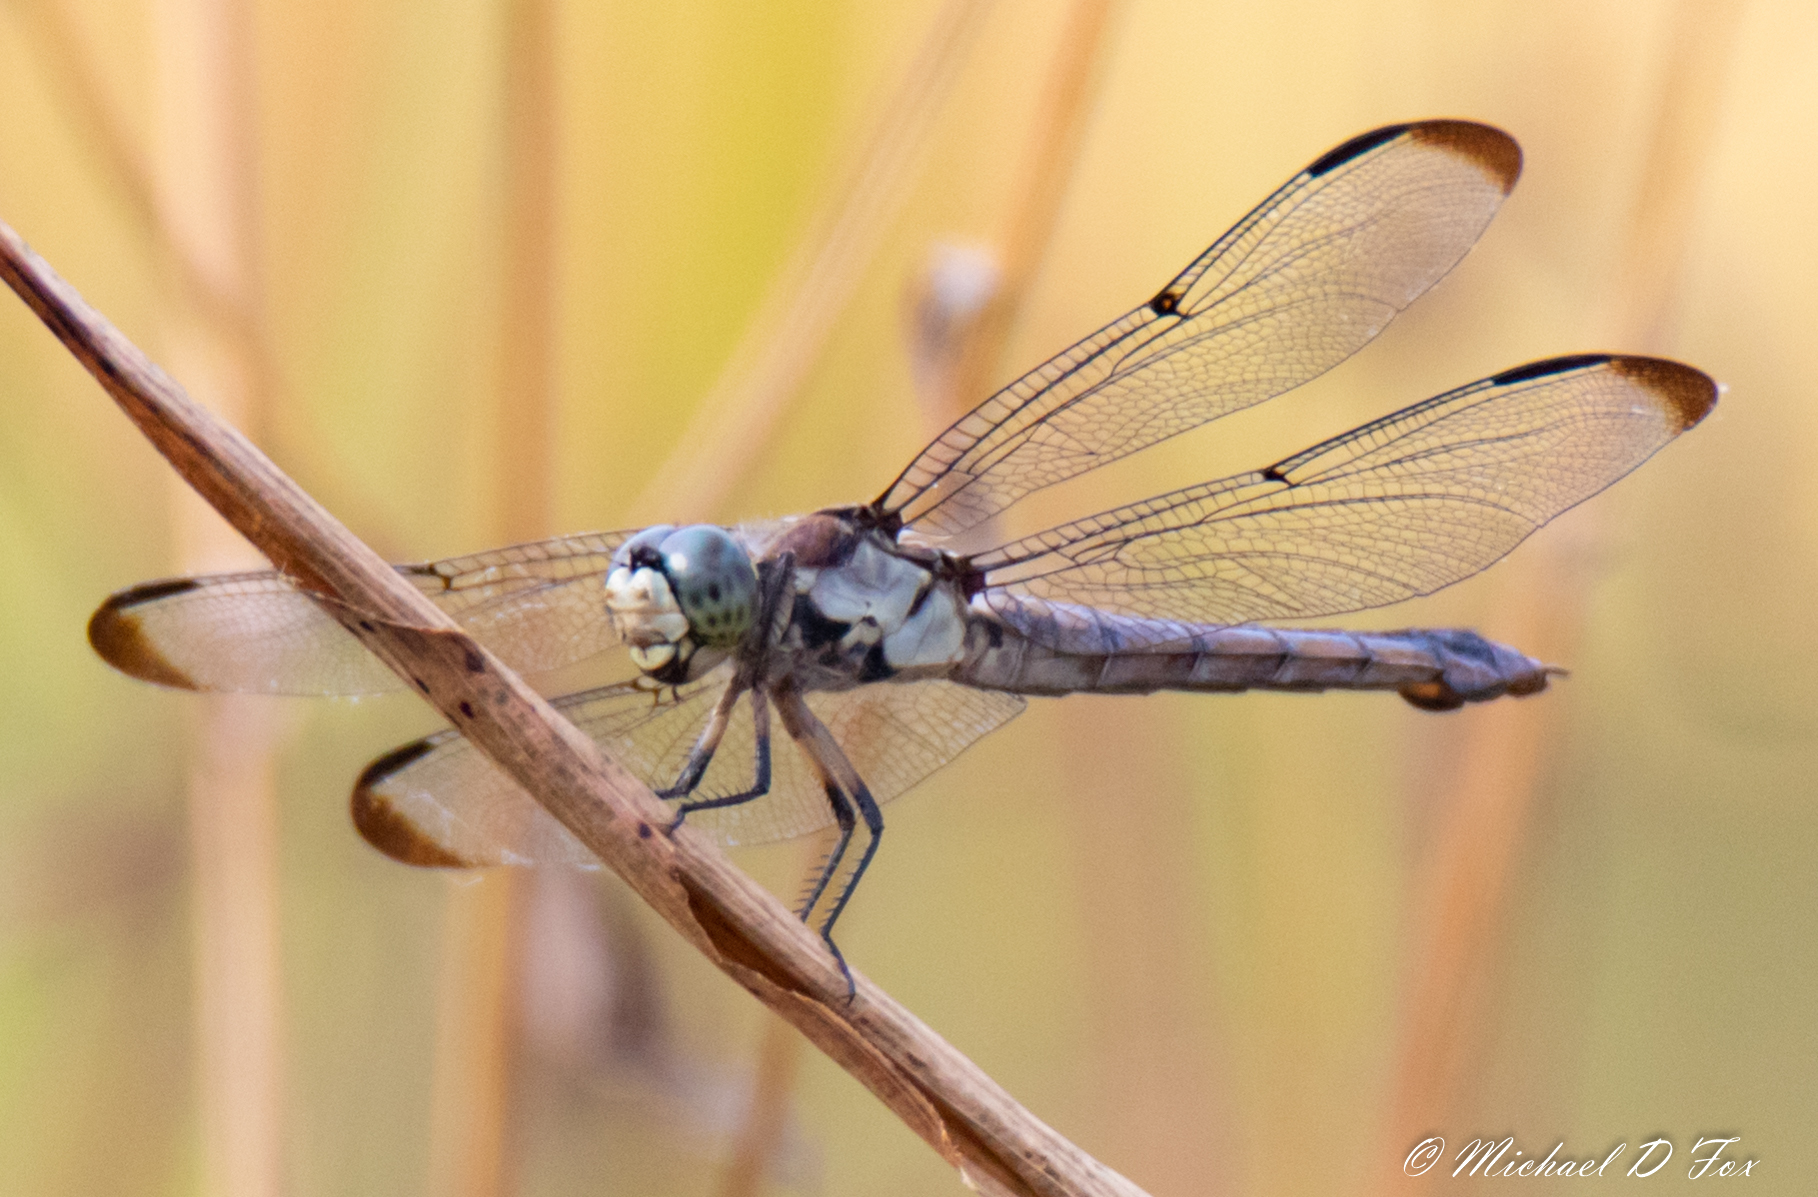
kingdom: Animalia
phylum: Arthropoda
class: Insecta
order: Odonata
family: Libellulidae
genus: Libellula
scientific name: Libellula vibrans
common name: Great blue skimmer
